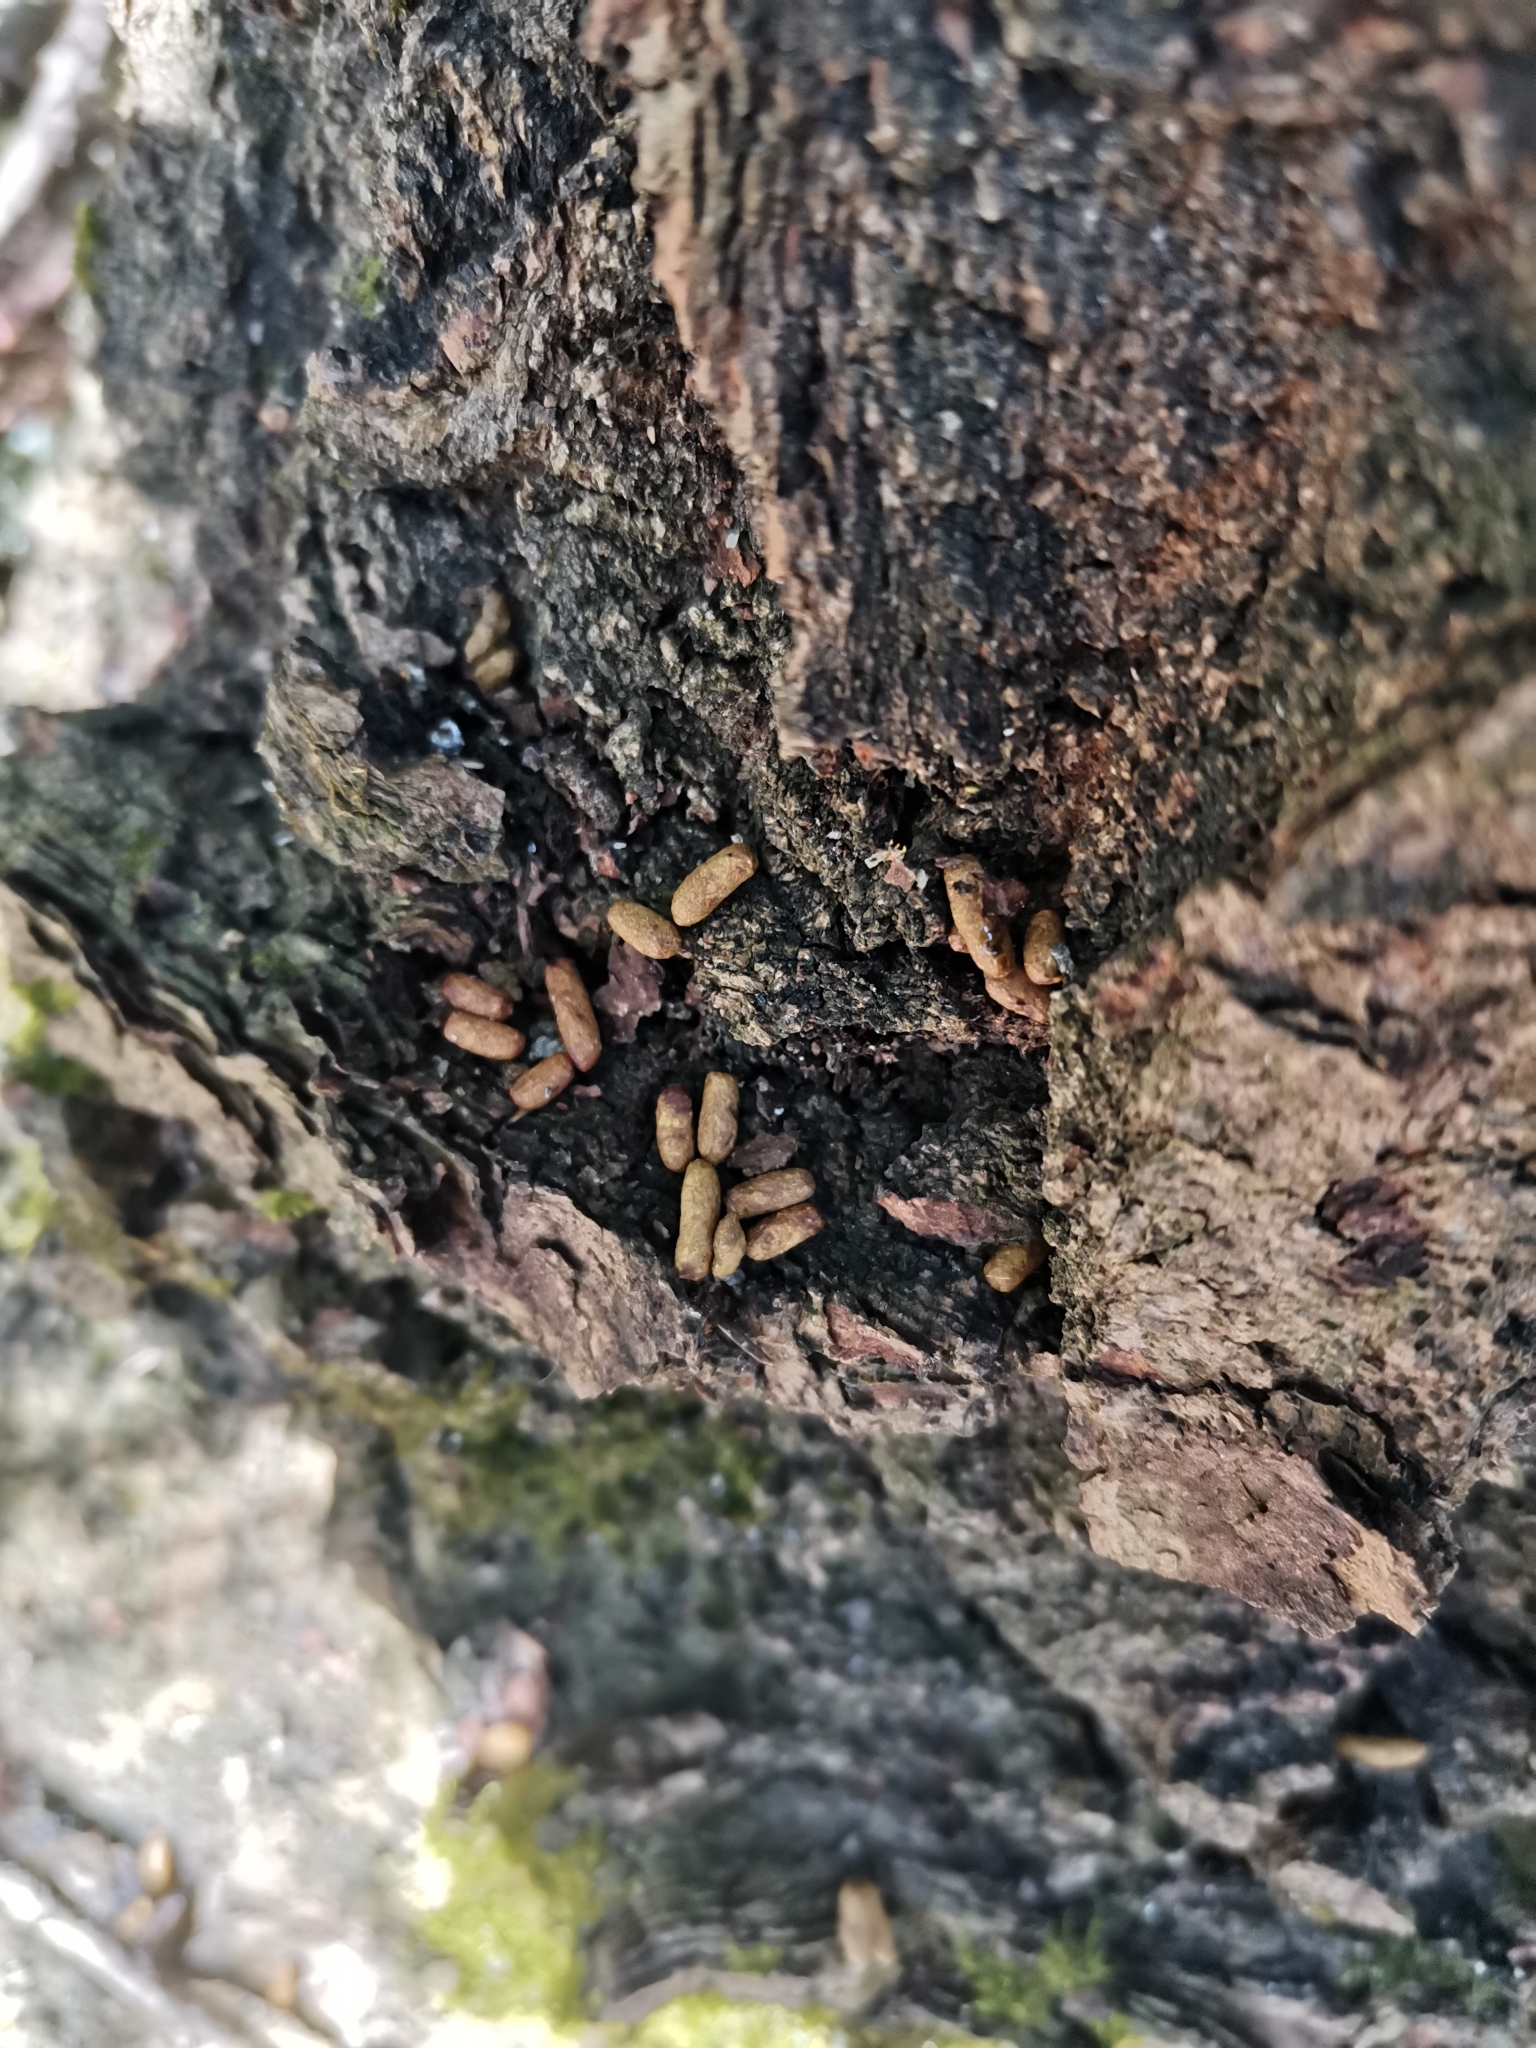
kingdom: Animalia
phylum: Chordata
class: Mammalia
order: Rodentia
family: Sciuridae
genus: Pteromys
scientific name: Pteromys volans
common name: Siberian flying squirrel
